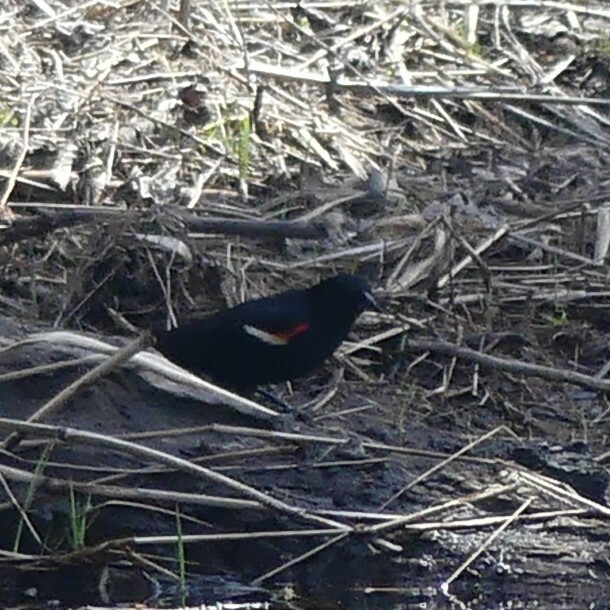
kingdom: Animalia
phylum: Chordata
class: Aves
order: Passeriformes
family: Icteridae
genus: Agelaius
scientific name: Agelaius phoeniceus
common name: Red-winged blackbird
